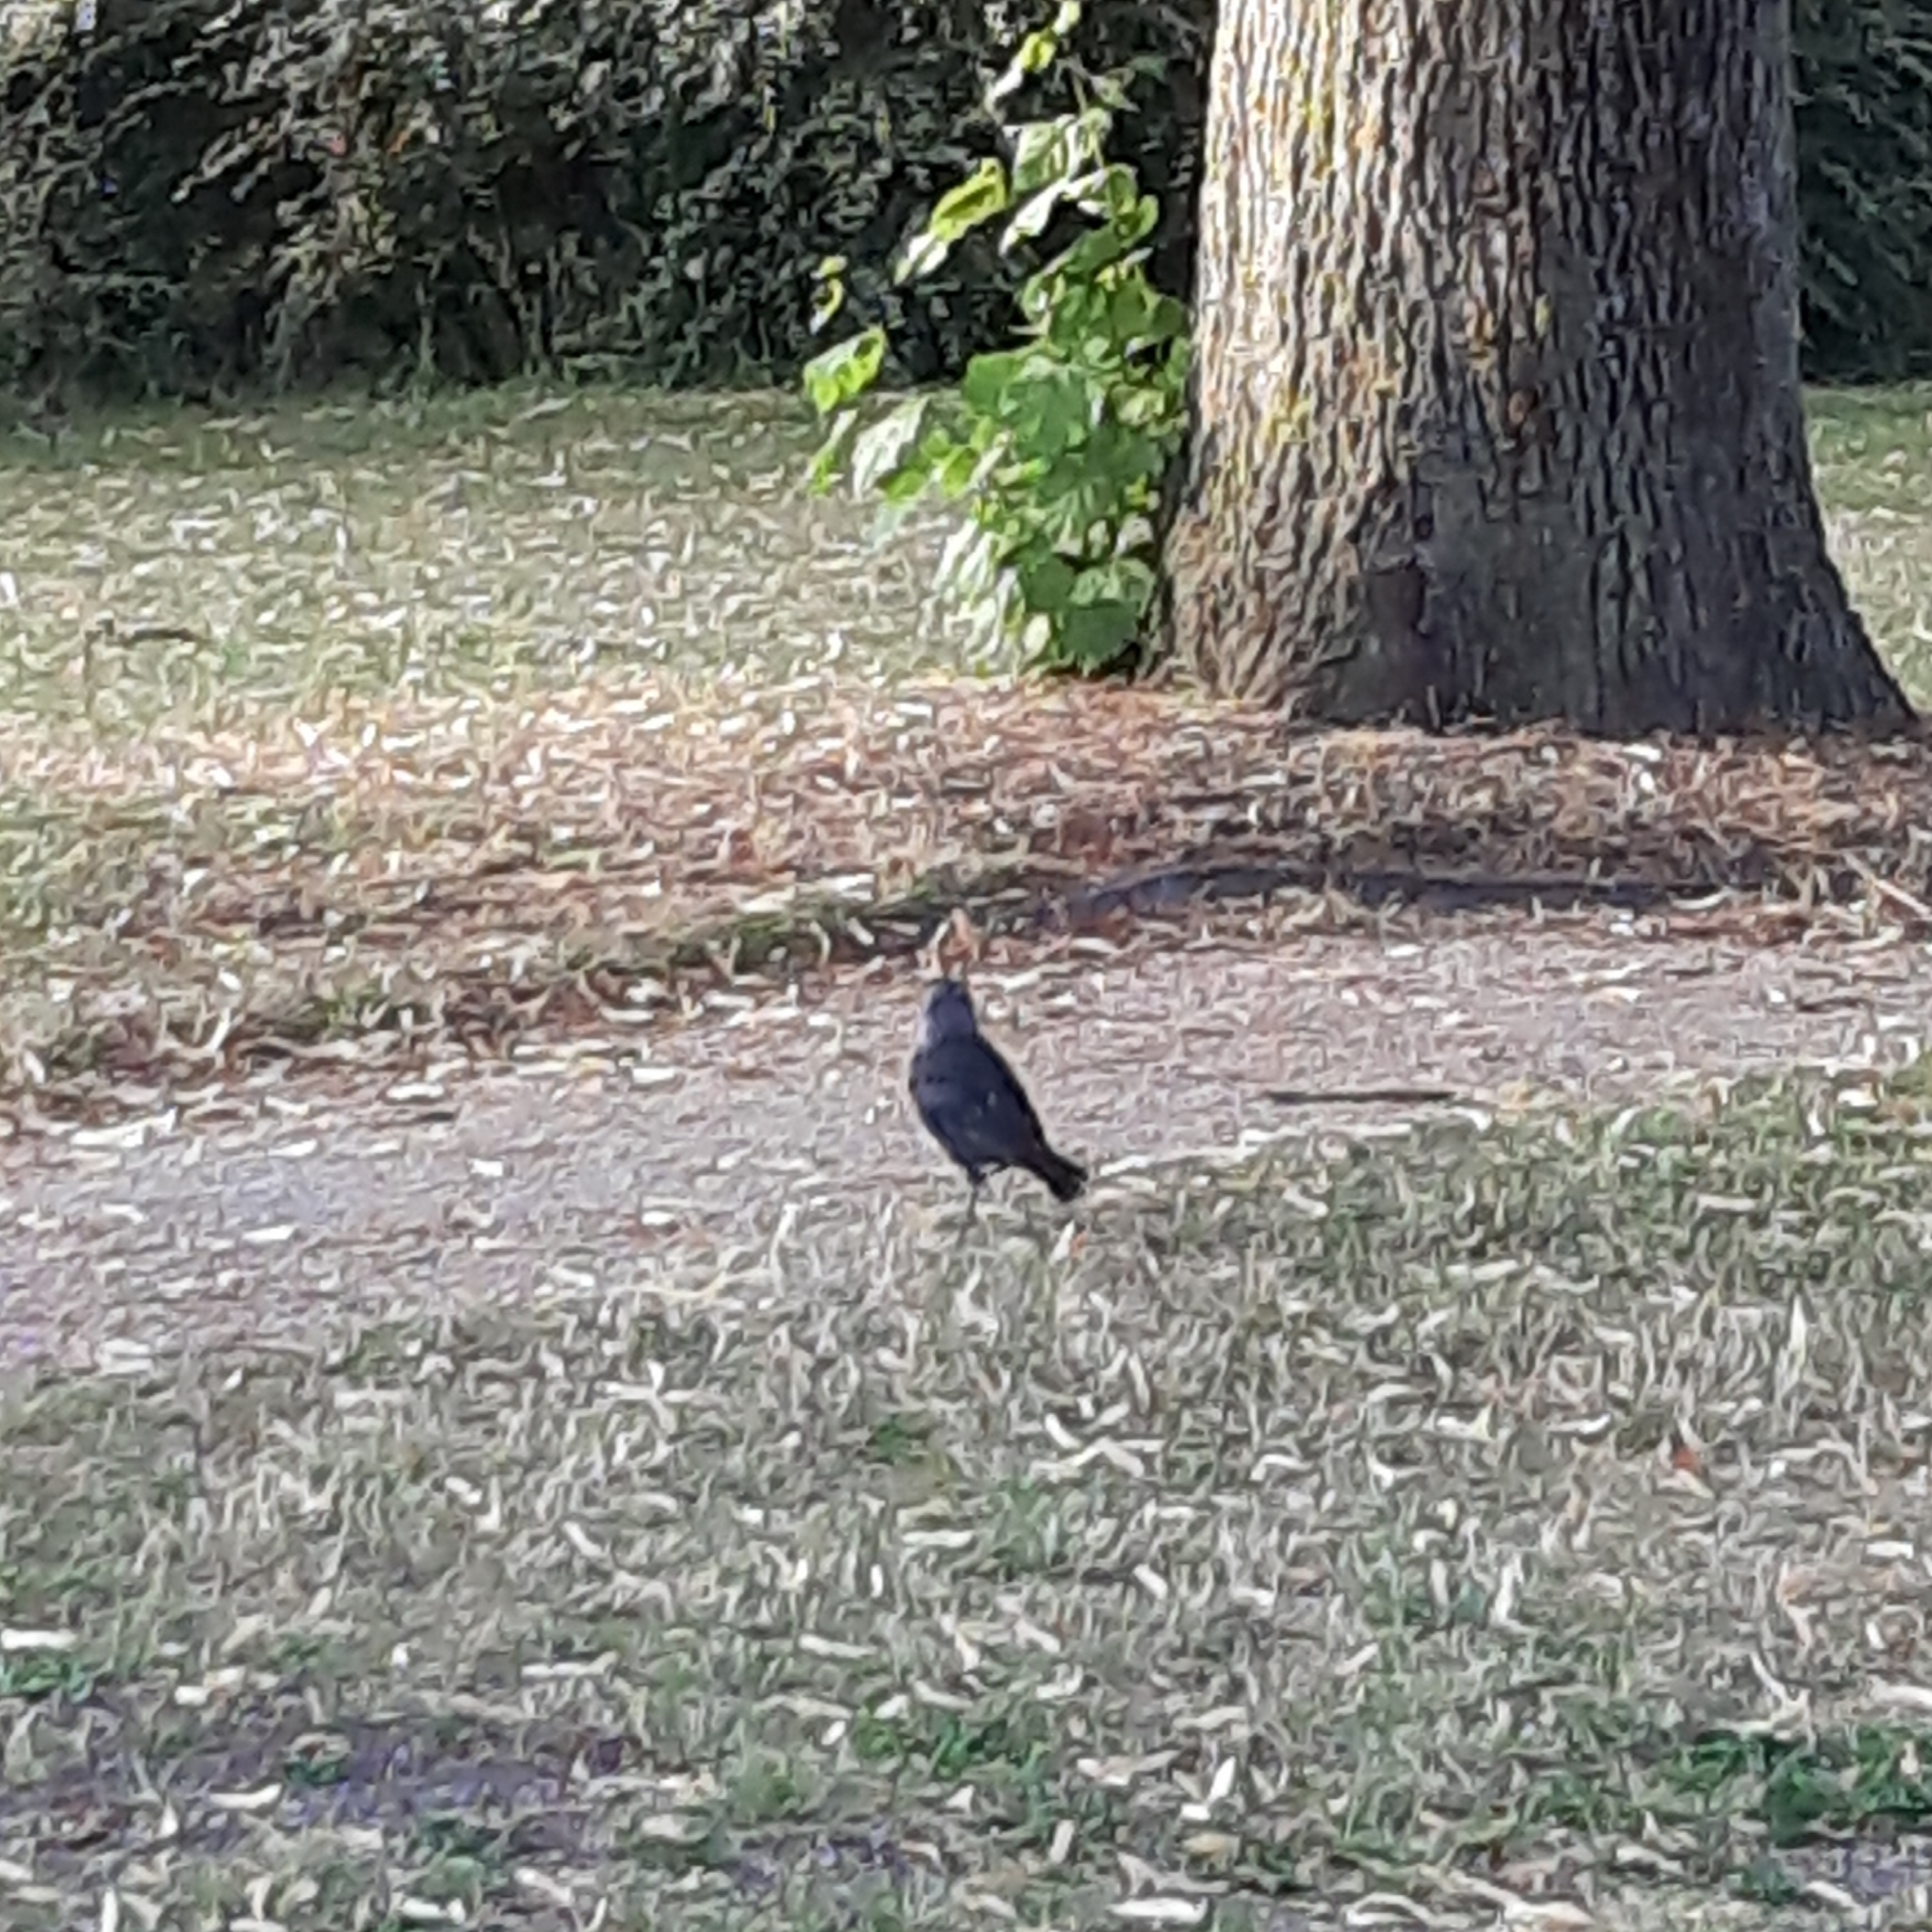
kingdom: Animalia
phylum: Chordata
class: Aves
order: Passeriformes
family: Corvidae
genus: Coloeus
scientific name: Coloeus monedula
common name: Western jackdaw
